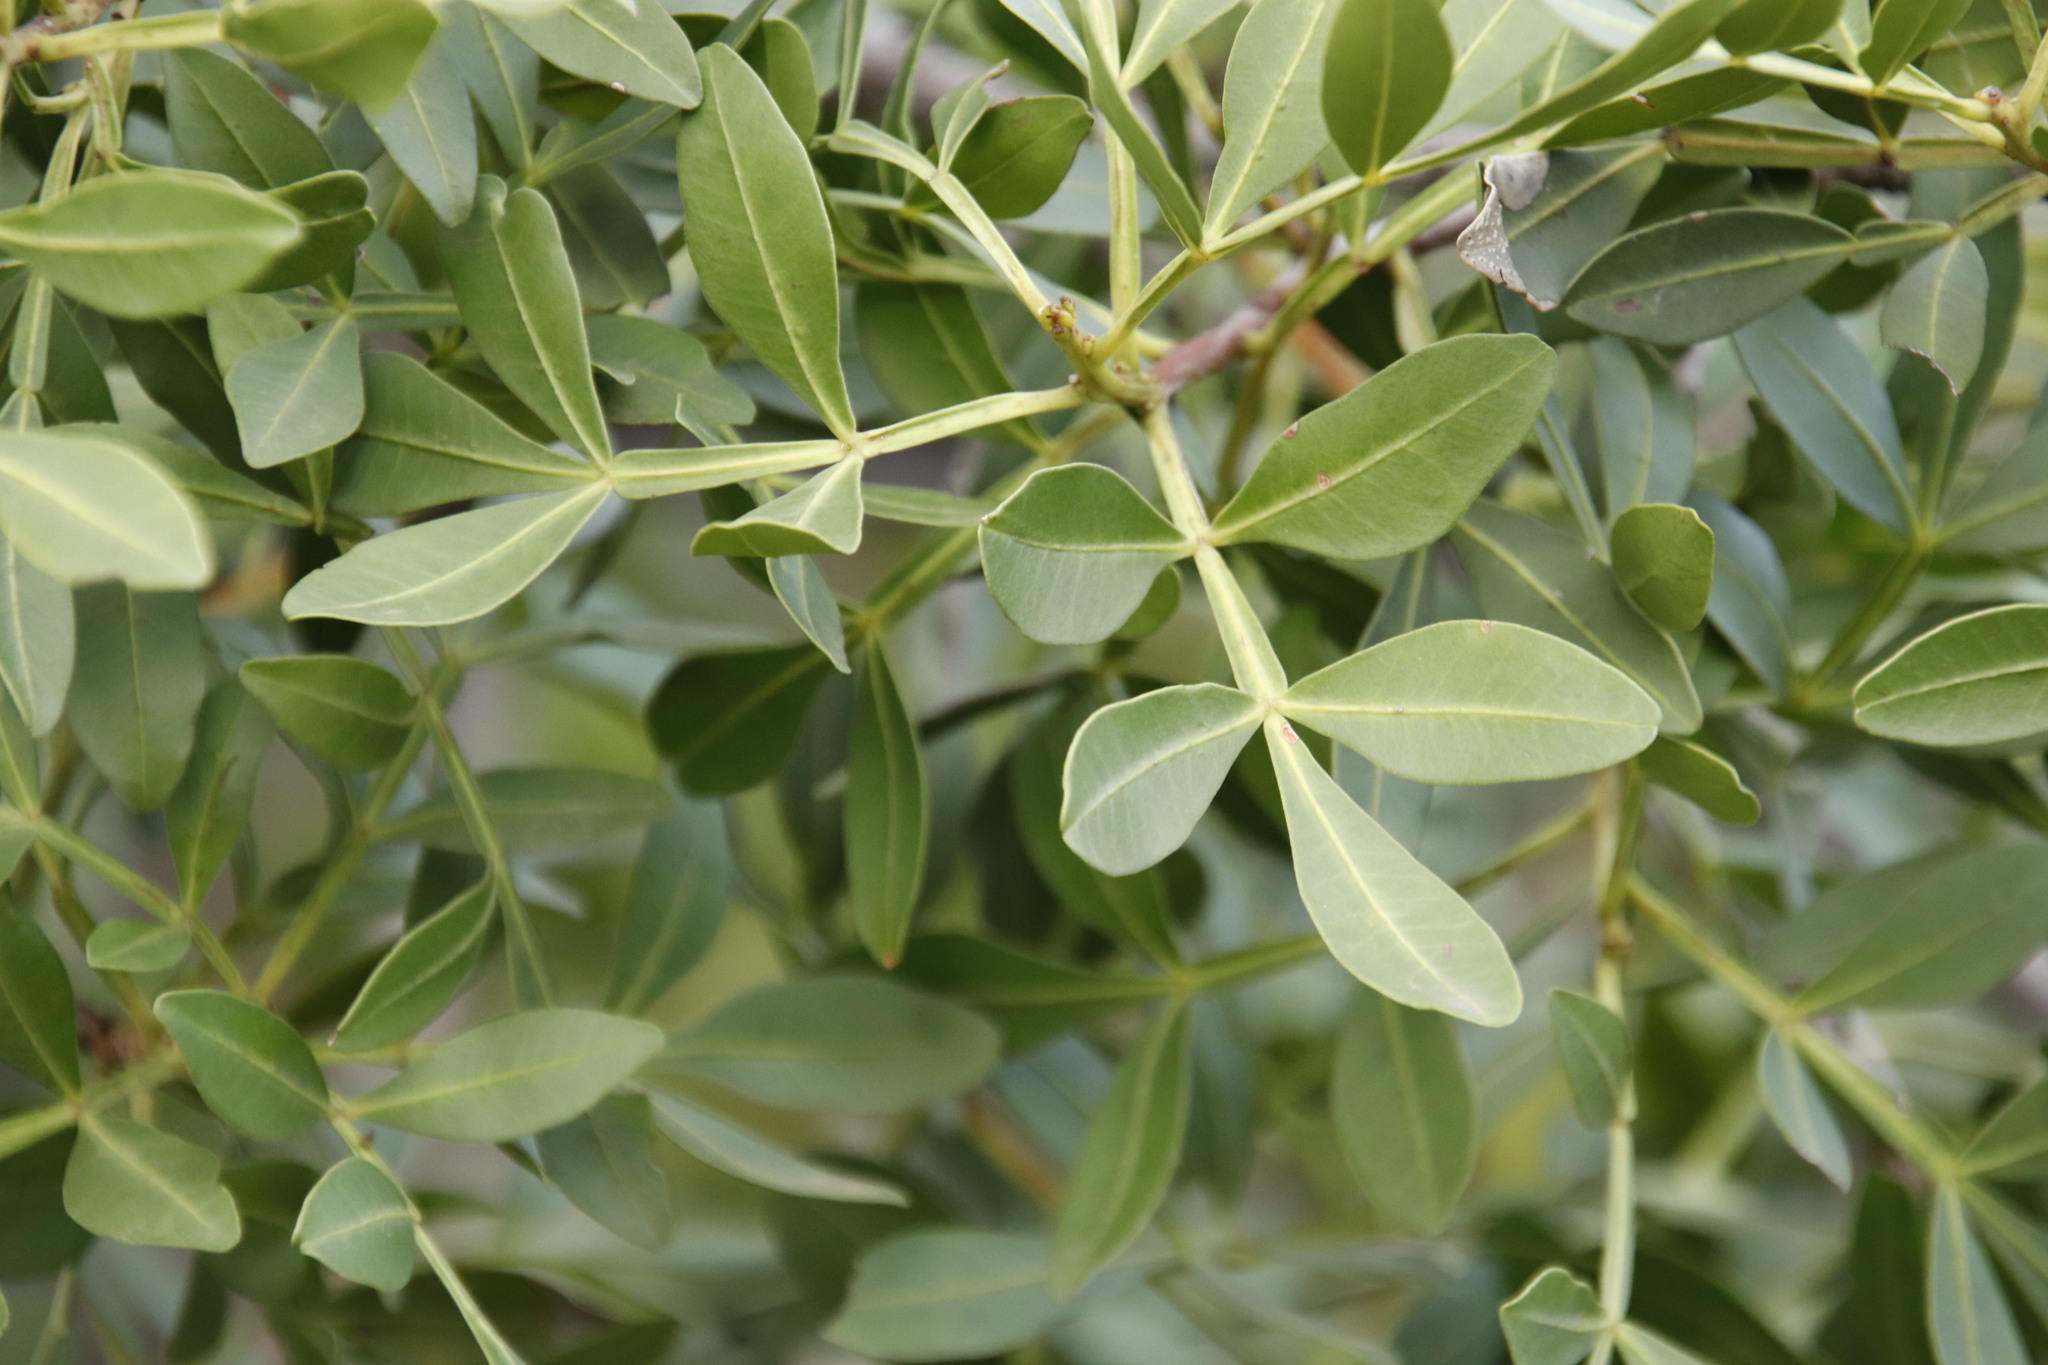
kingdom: Plantae
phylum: Tracheophyta
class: Magnoliopsida
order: Sapindales
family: Meliaceae
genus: Ekebergia
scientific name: Ekebergia pterophylla
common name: Cape ash
